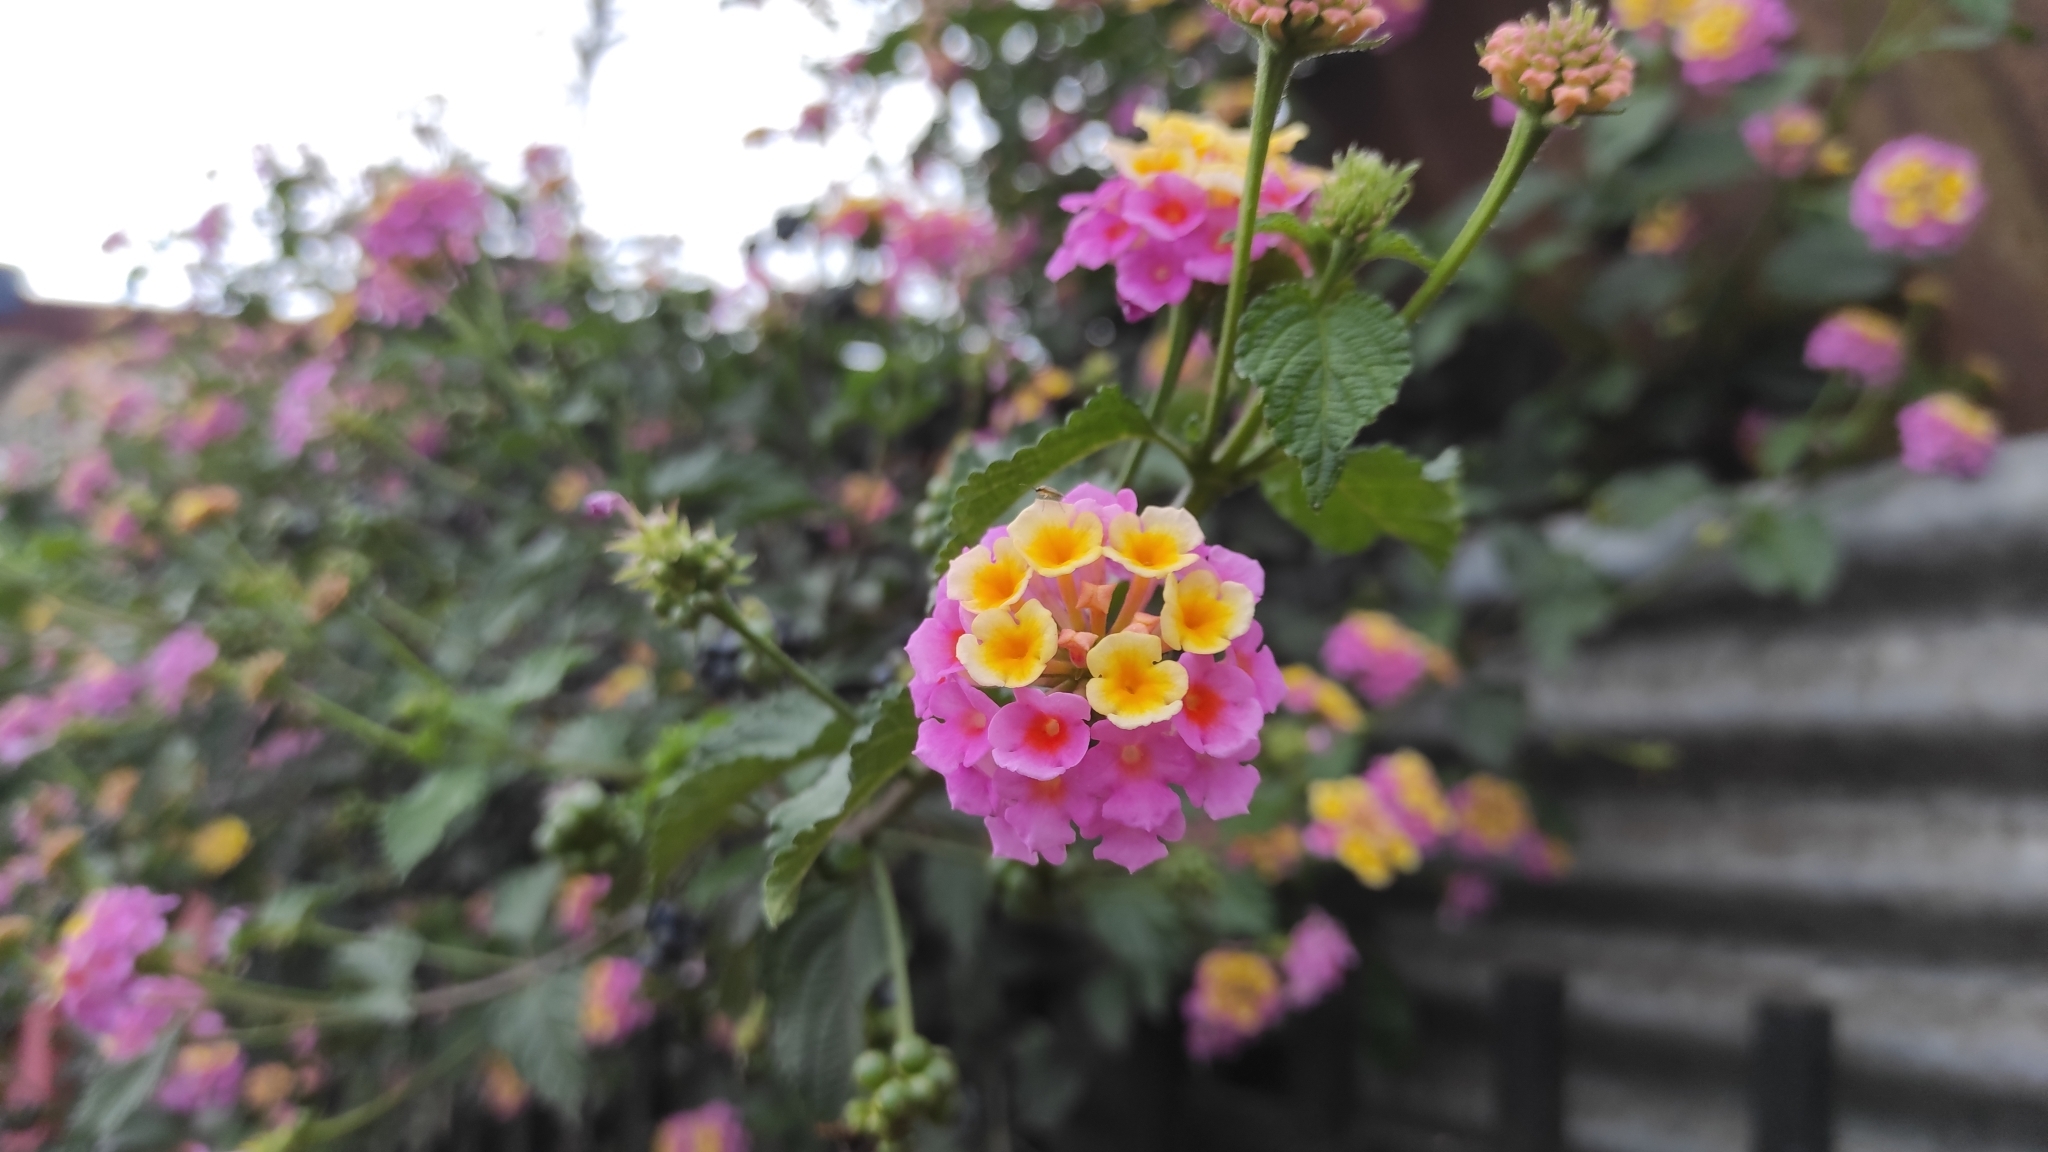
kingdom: Plantae
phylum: Tracheophyta
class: Magnoliopsida
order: Lamiales
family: Verbenaceae
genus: Lantana
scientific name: Lantana strigocamara
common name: Lantana
